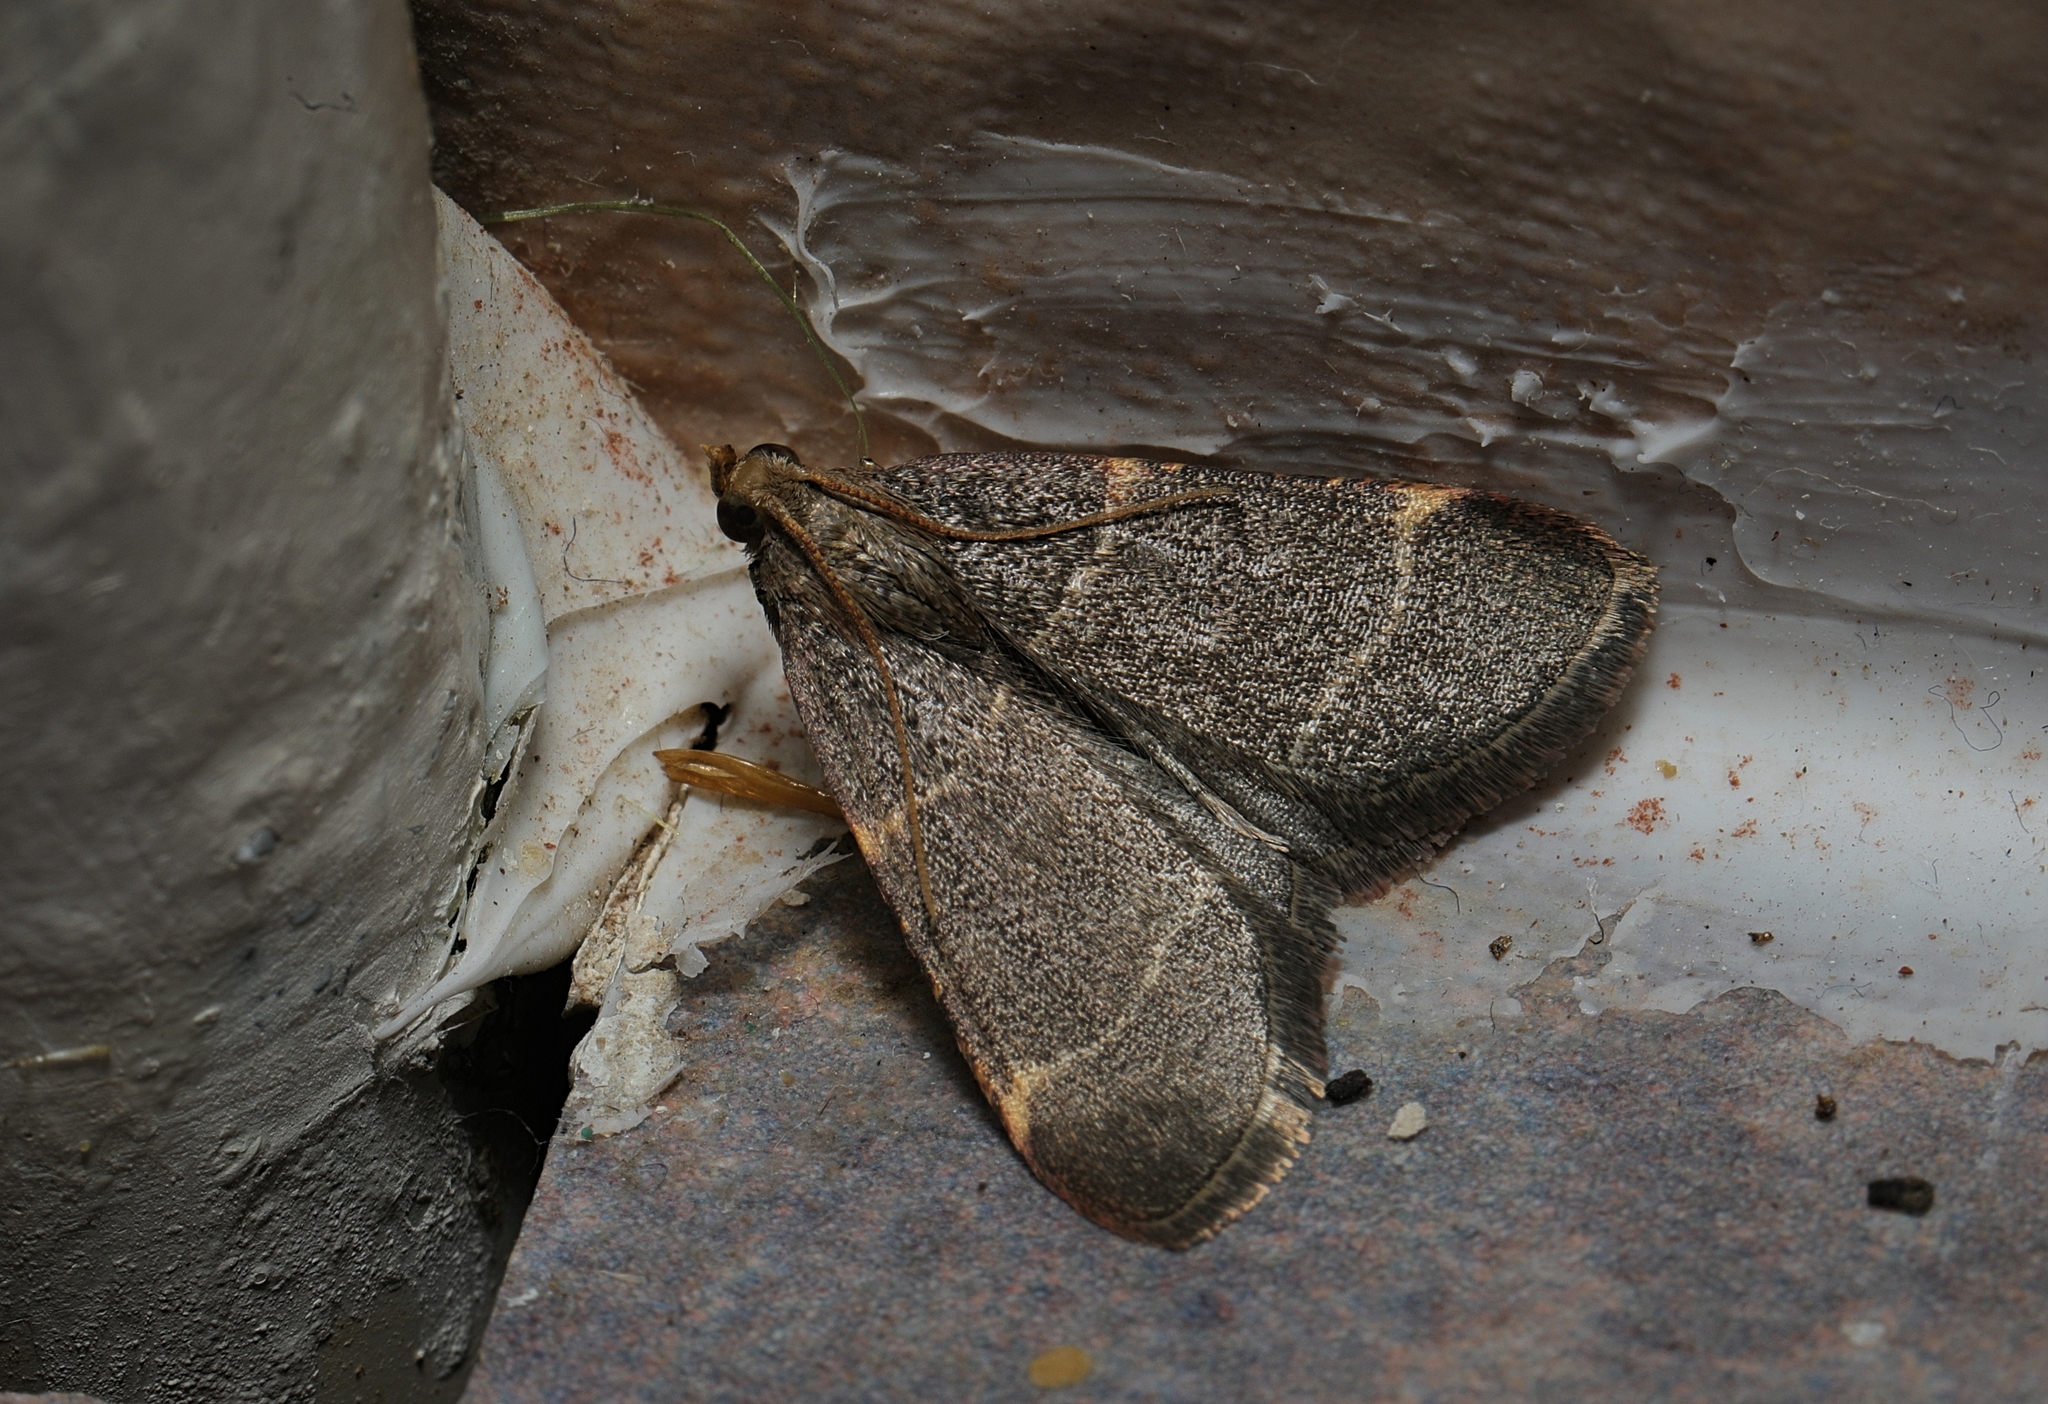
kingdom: Animalia
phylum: Arthropoda
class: Insecta
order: Lepidoptera
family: Pyralidae
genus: Hypsopygia
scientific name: Hypsopygia glaucinalis
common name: Double-striped tabby
